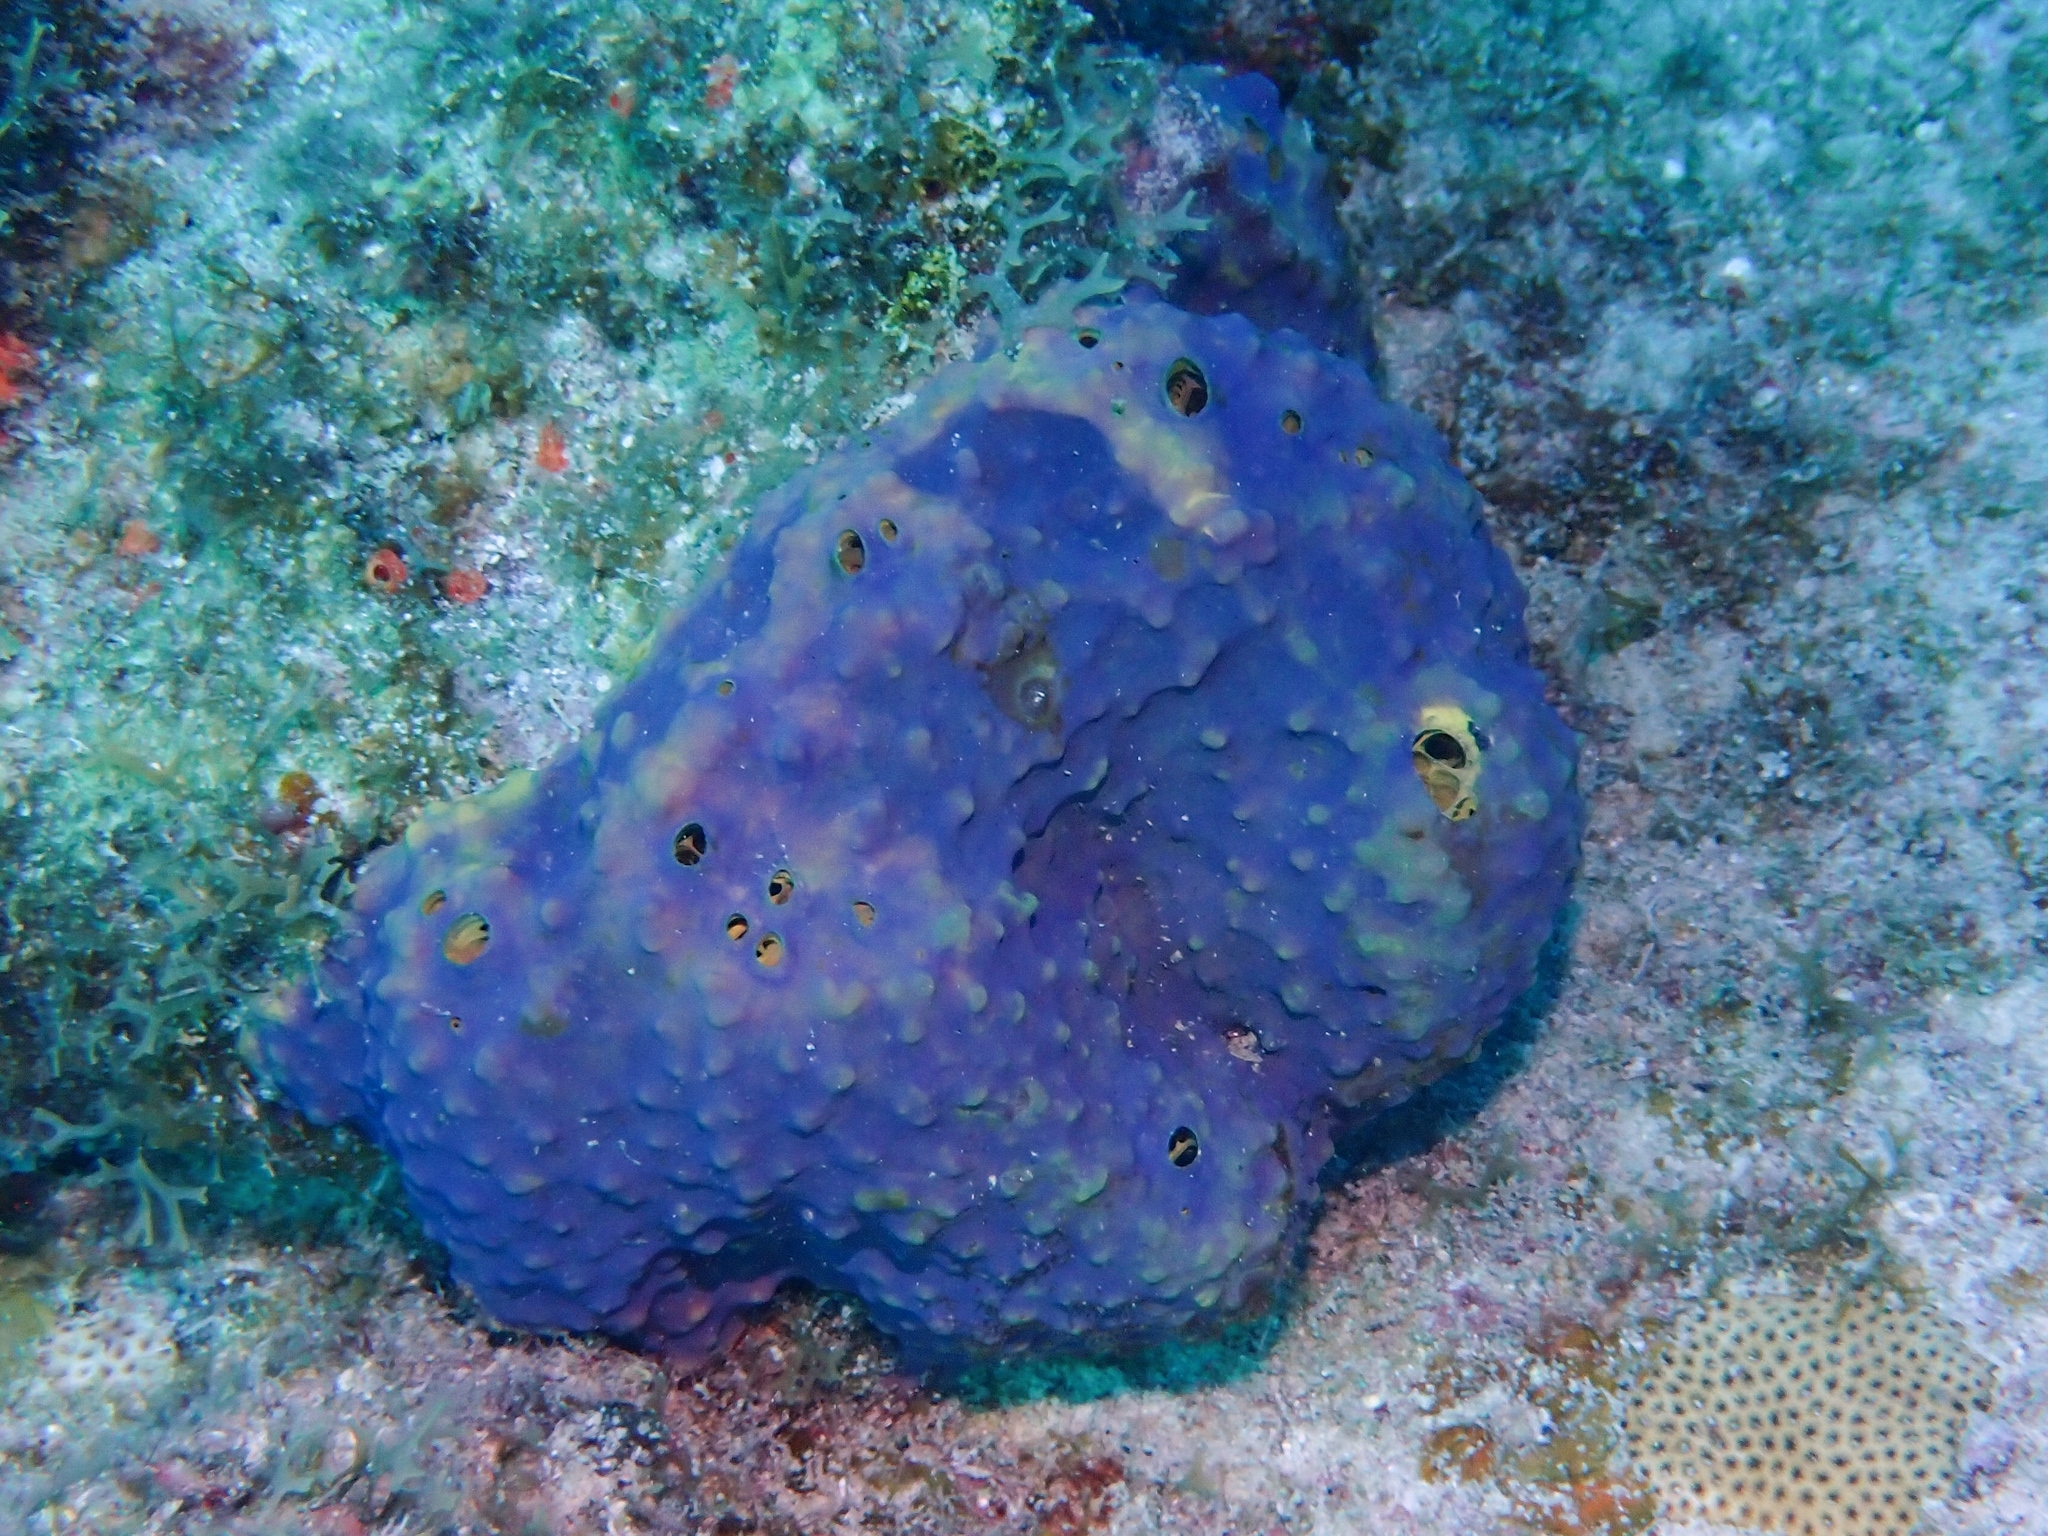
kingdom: Animalia
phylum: Porifera
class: Demospongiae
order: Verongiida
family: Aplysinidae
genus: Aiolochroia
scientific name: Aiolochroia crassa
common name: Branching tube sponge
